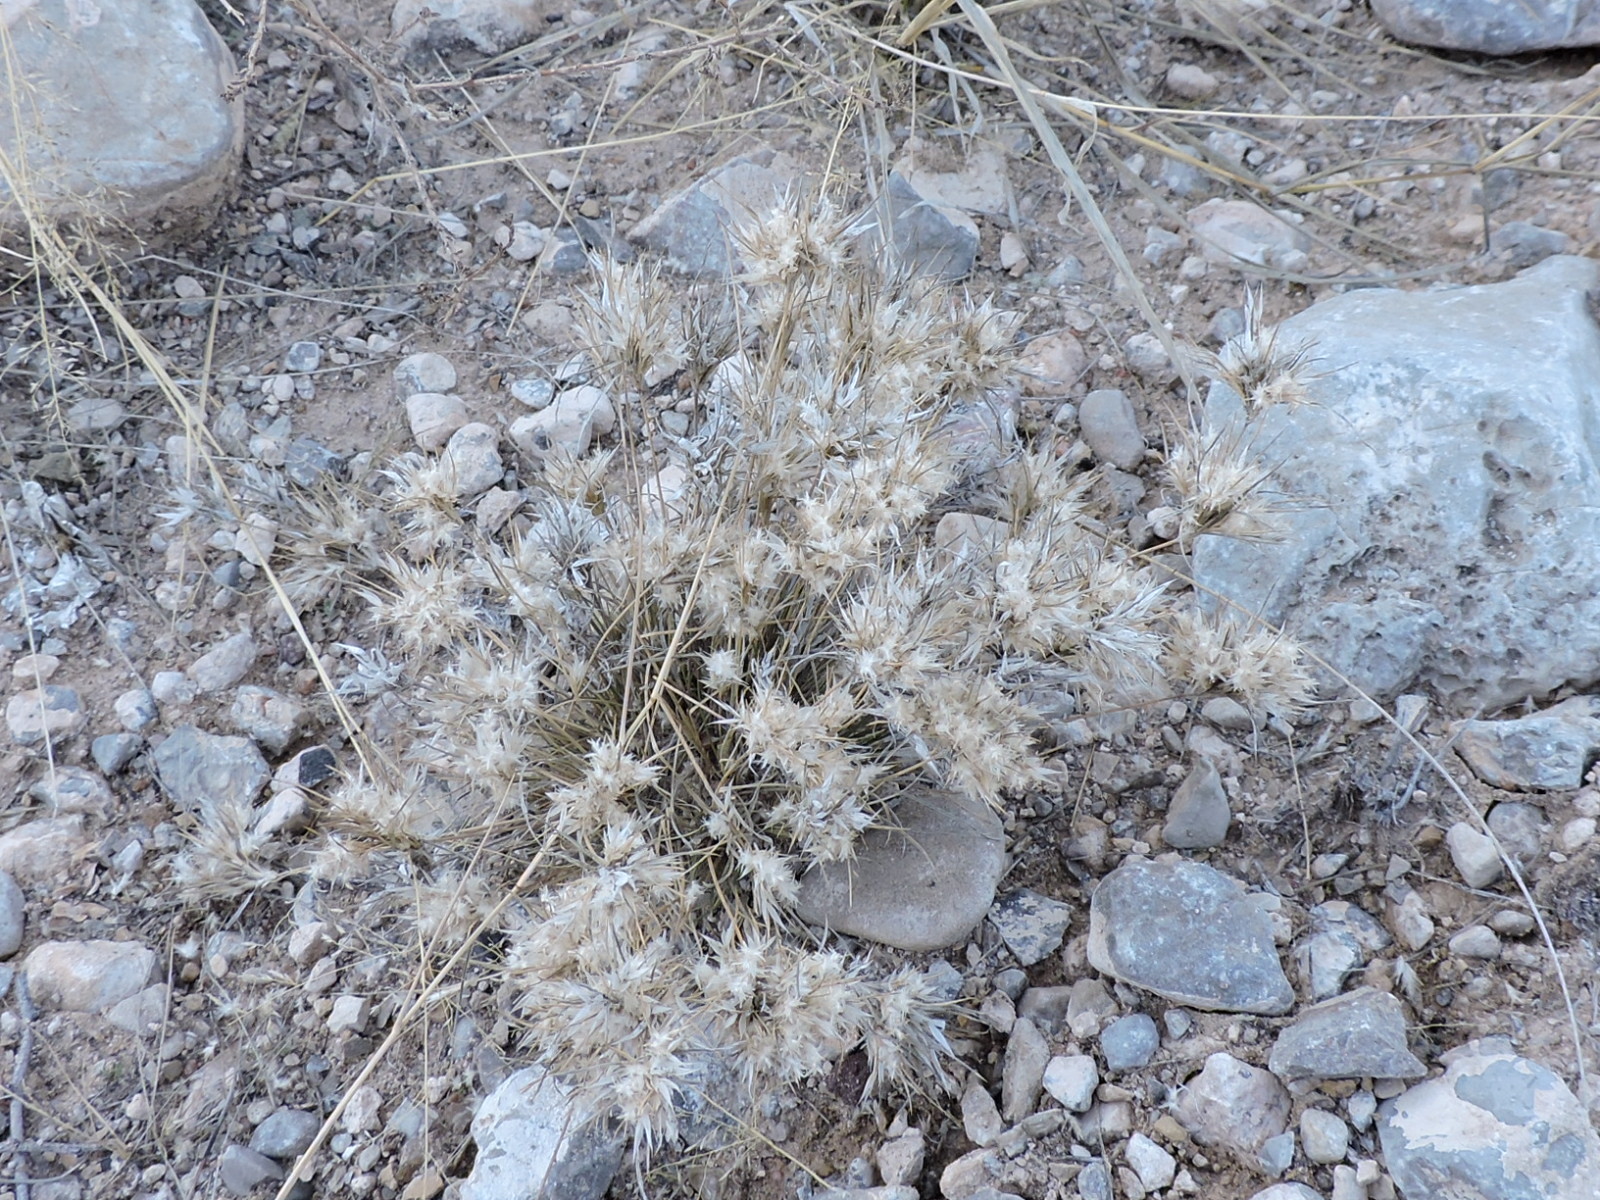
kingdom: Plantae
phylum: Tracheophyta
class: Liliopsida
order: Poales
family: Poaceae
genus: Dasyochloa
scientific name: Dasyochloa pulchella
